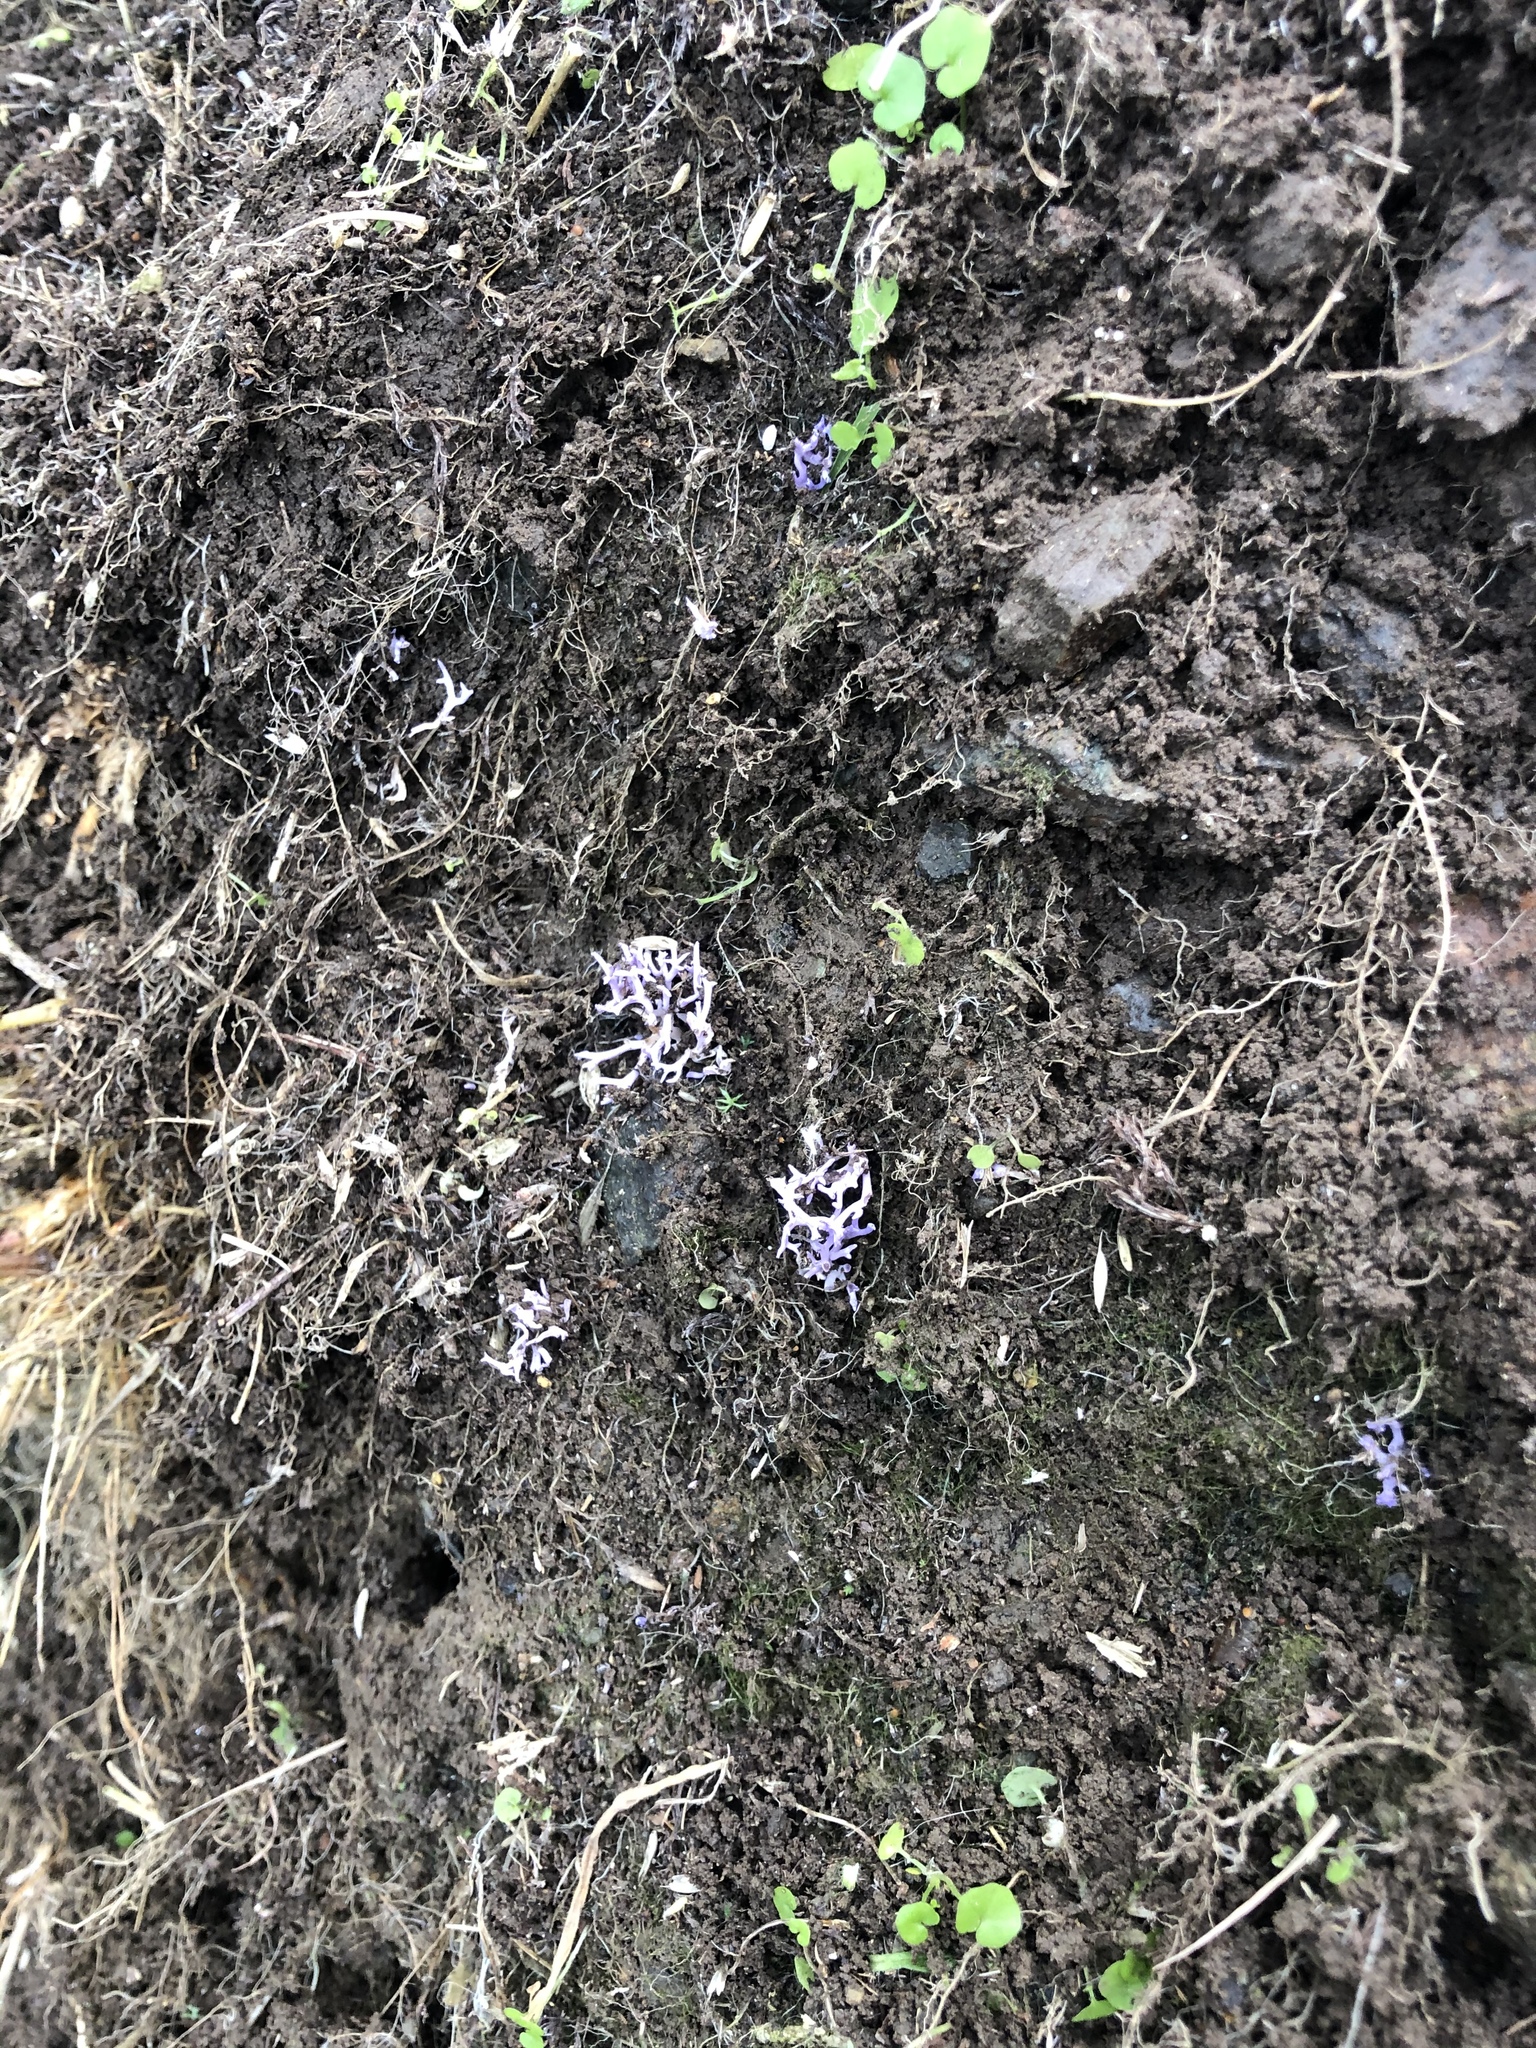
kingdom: Fungi
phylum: Basidiomycota
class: Agaricomycetes
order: Agaricales
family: Clavariaceae
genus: Ramariopsis
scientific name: Ramariopsis pulchella
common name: Lilac coral
